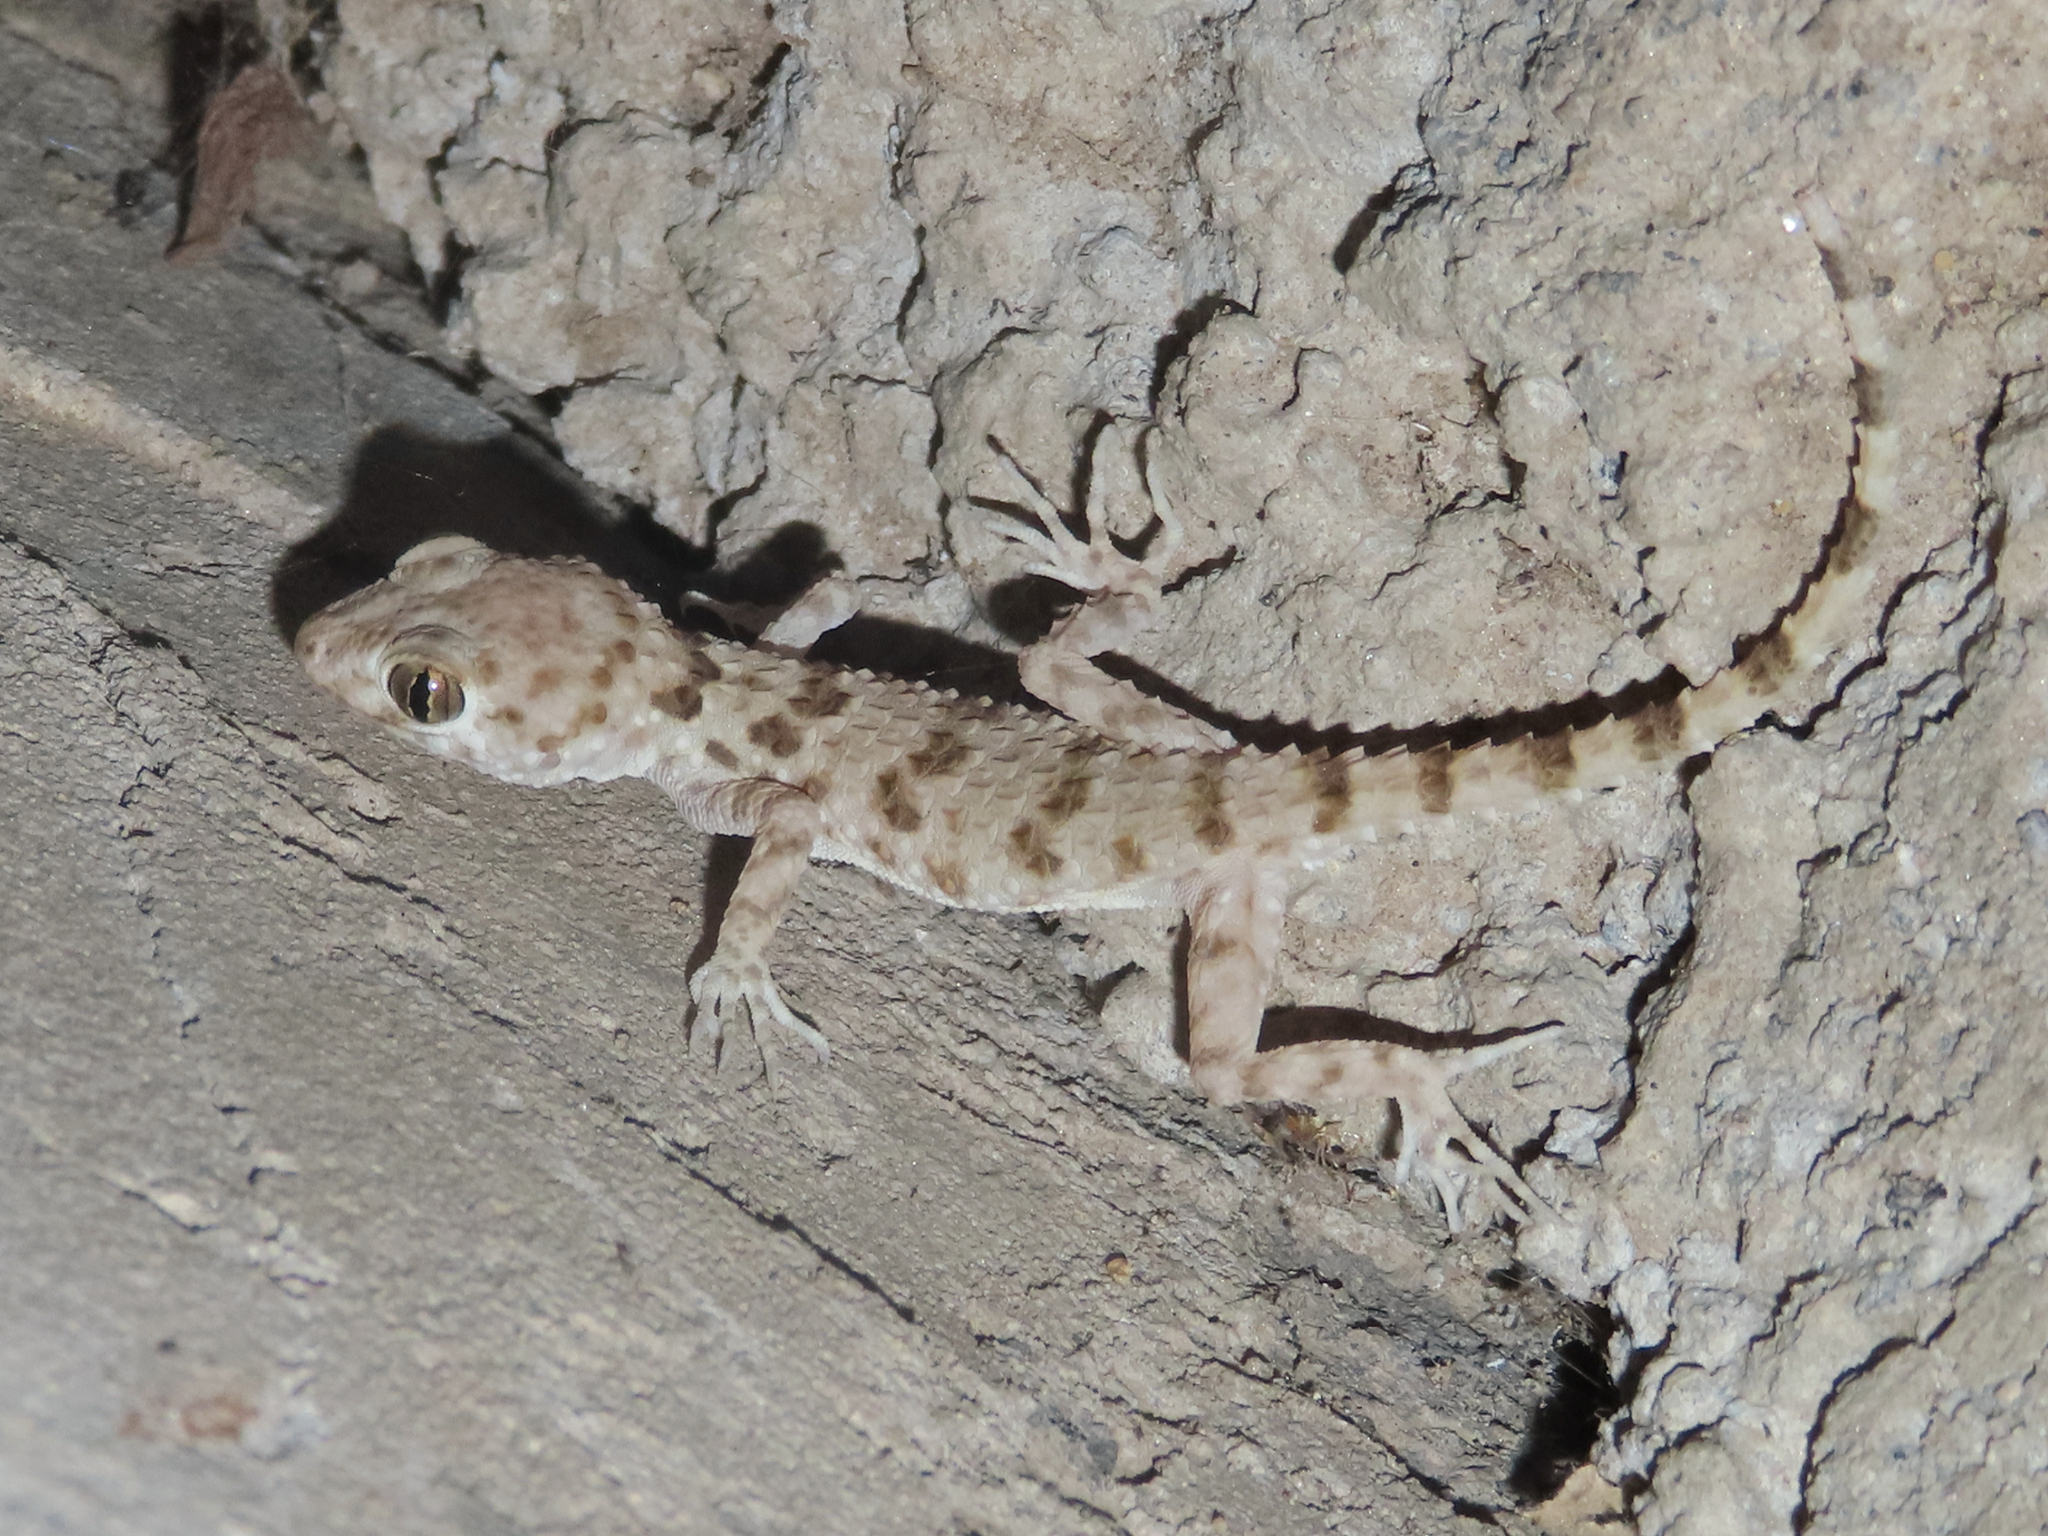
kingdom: Animalia
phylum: Chordata
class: Squamata
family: Gekkonidae
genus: Tenuidactylus
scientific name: Tenuidactylus caspius
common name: Caspian bent-toed gecko
